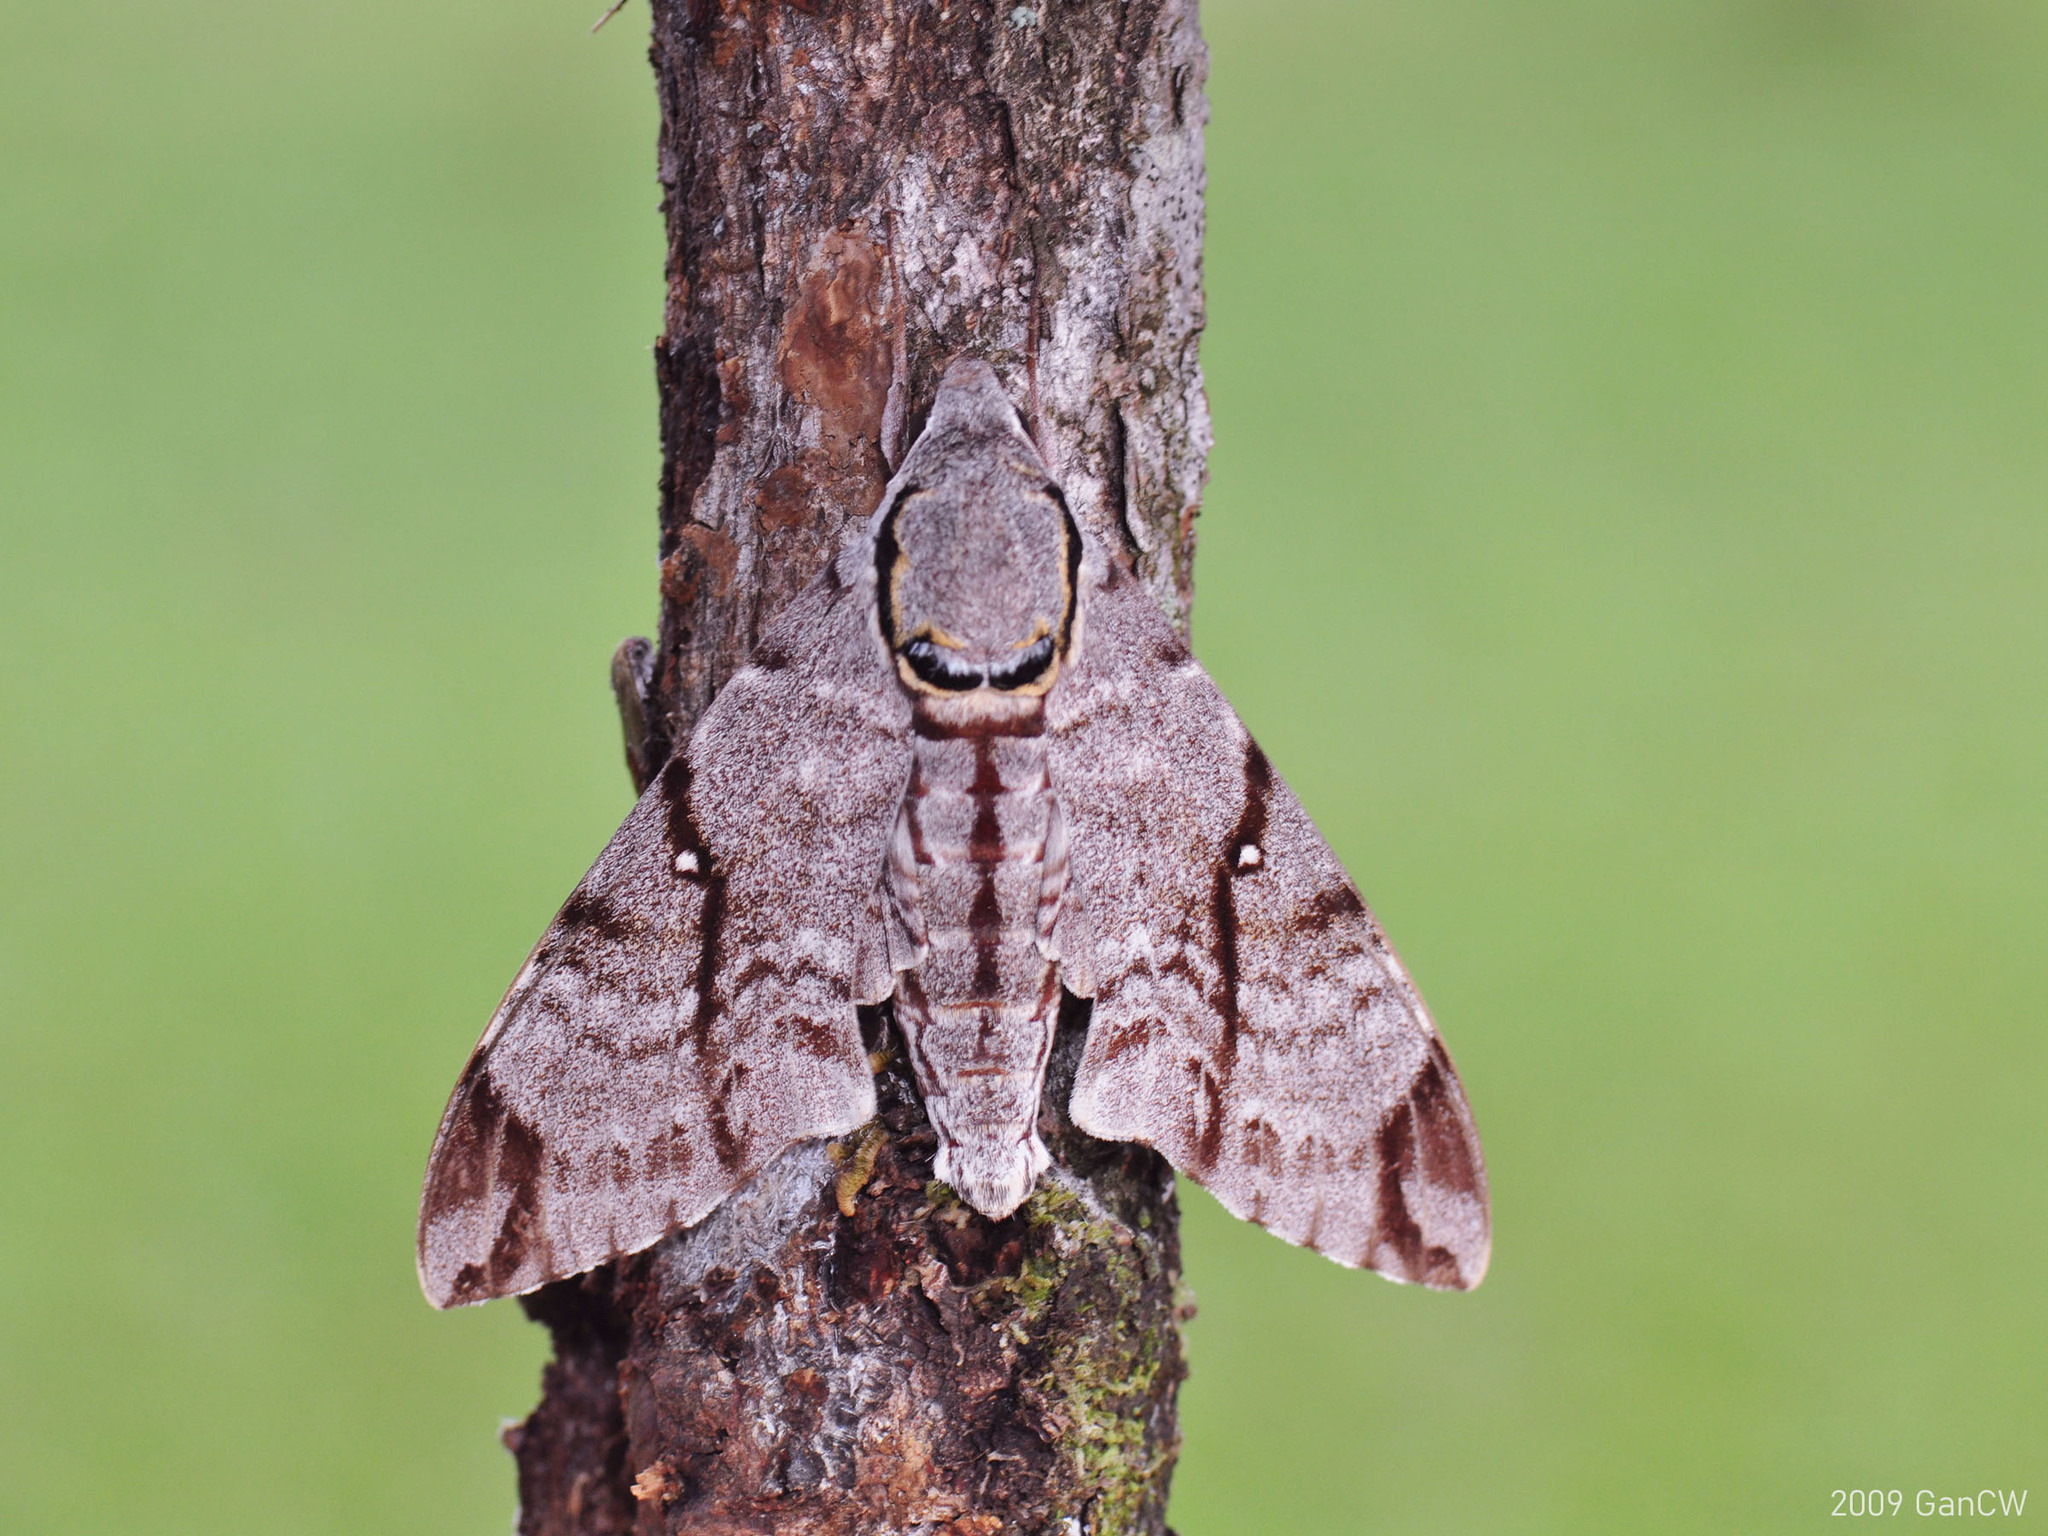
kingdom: Animalia
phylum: Arthropoda
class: Insecta
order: Lepidoptera
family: Sphingidae
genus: Notonagemia
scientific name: Notonagemia analis
